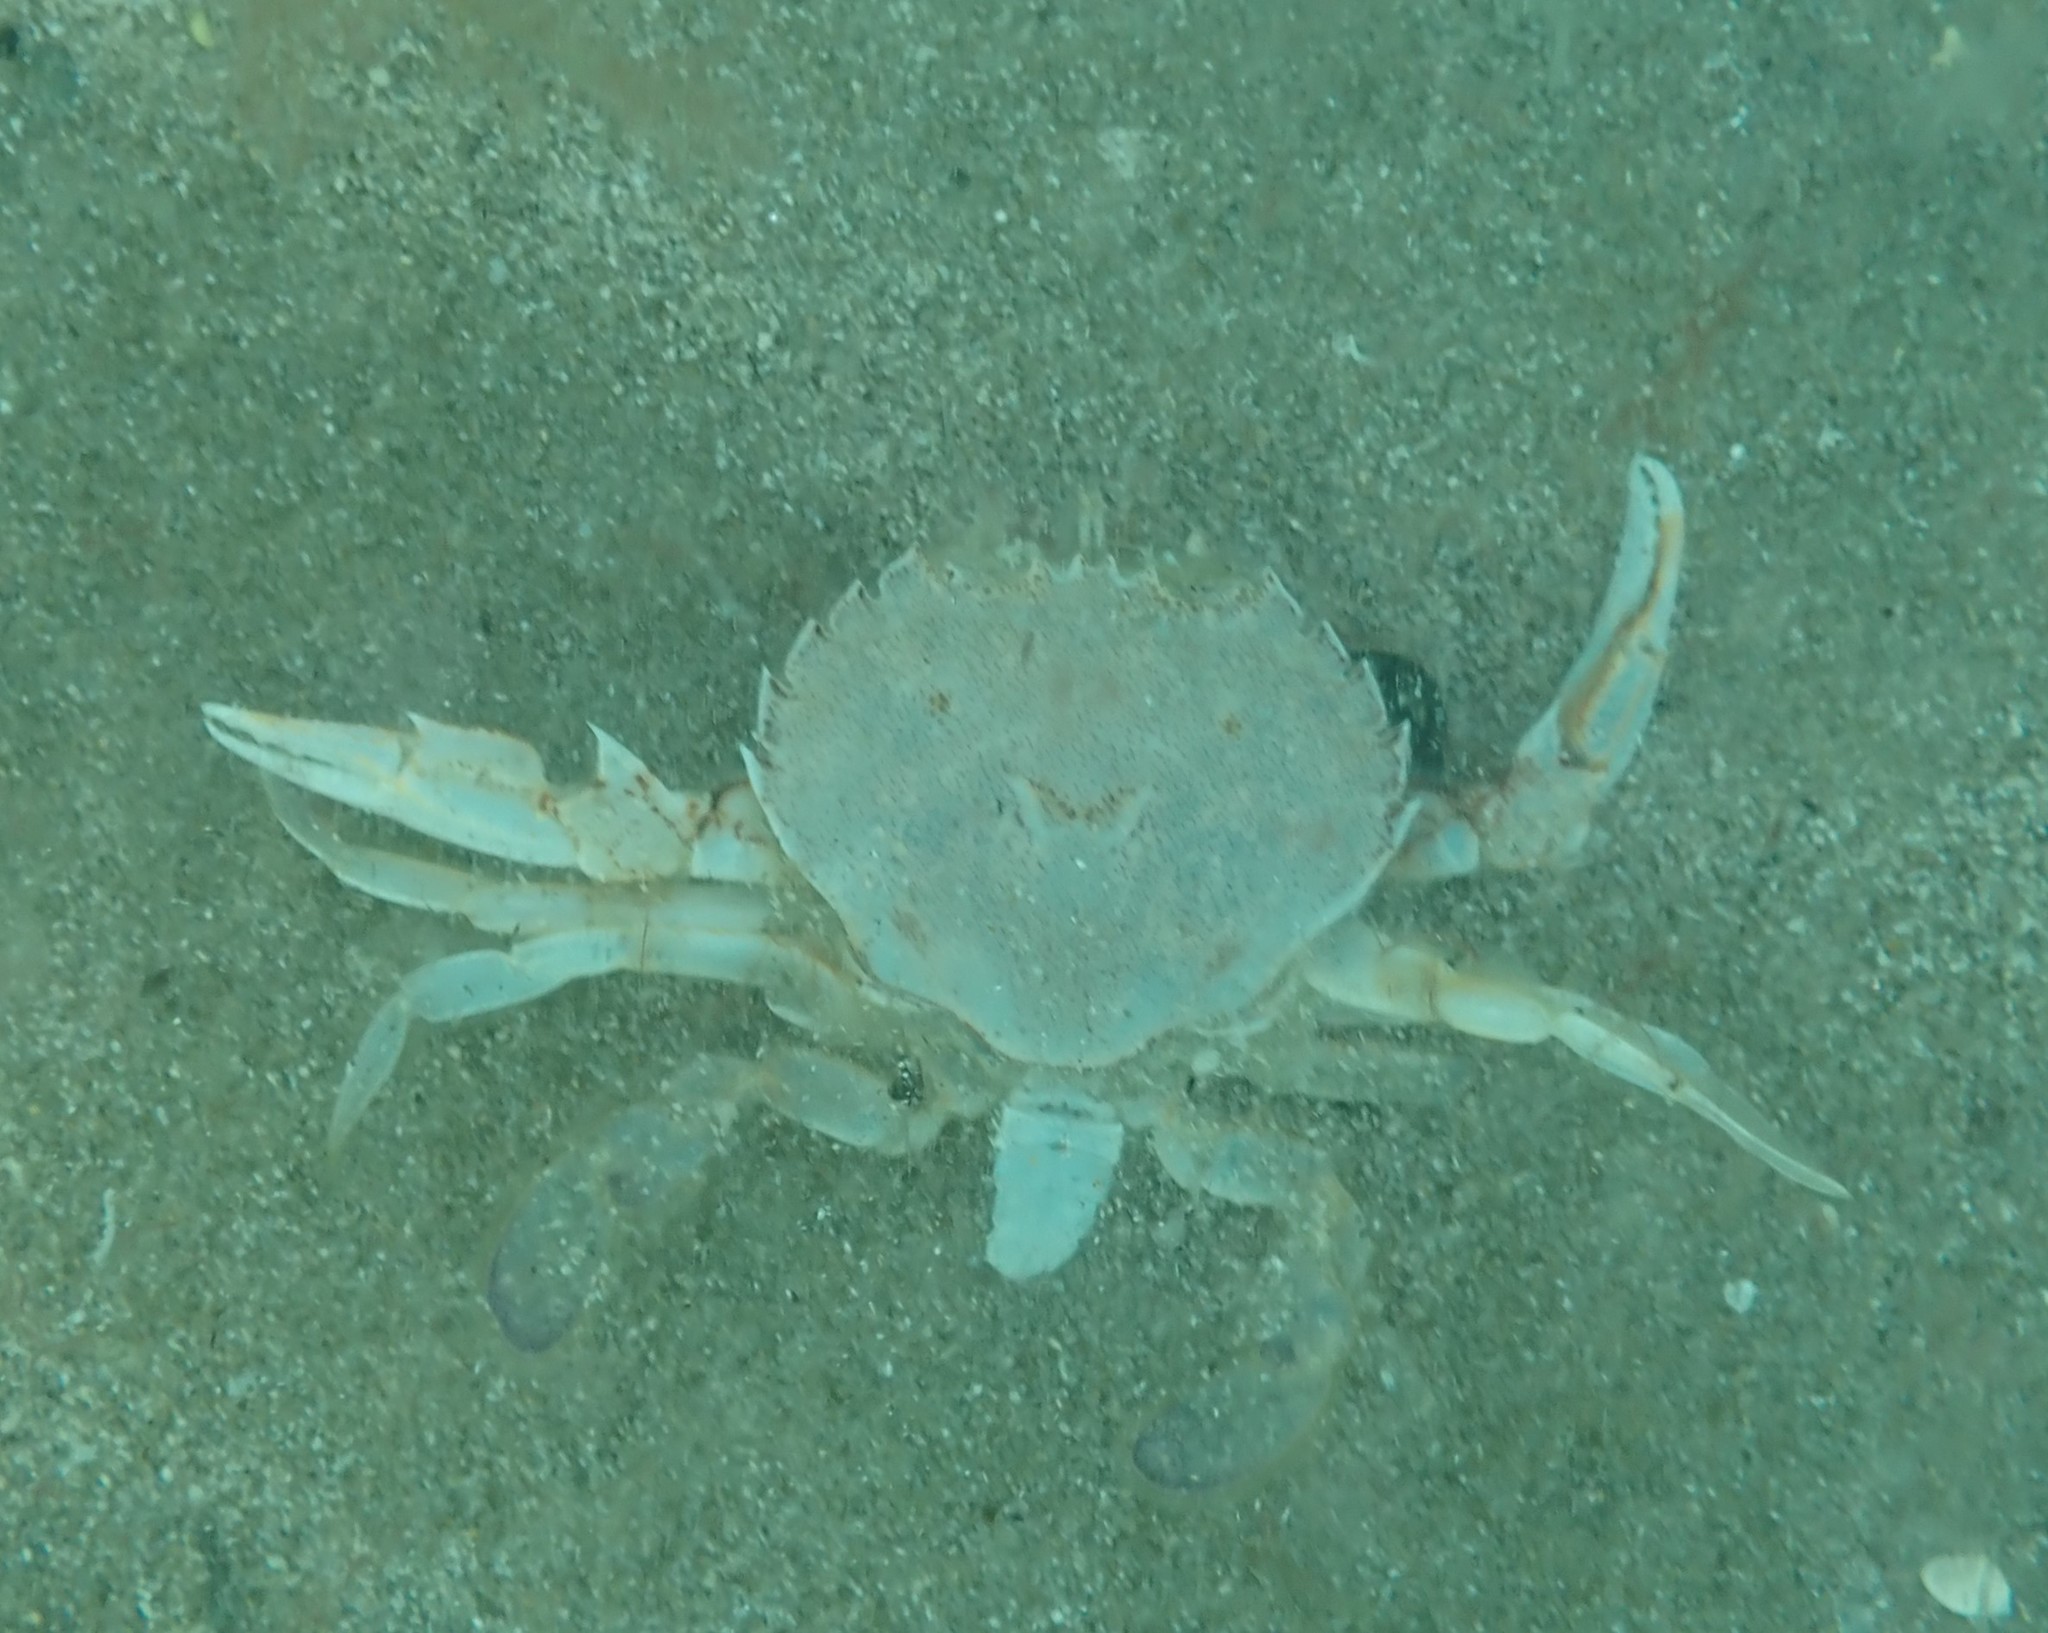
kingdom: Animalia
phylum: Arthropoda
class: Malacostraca
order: Decapoda
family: Ovalipidae
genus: Ovalipes
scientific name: Ovalipes catharus
